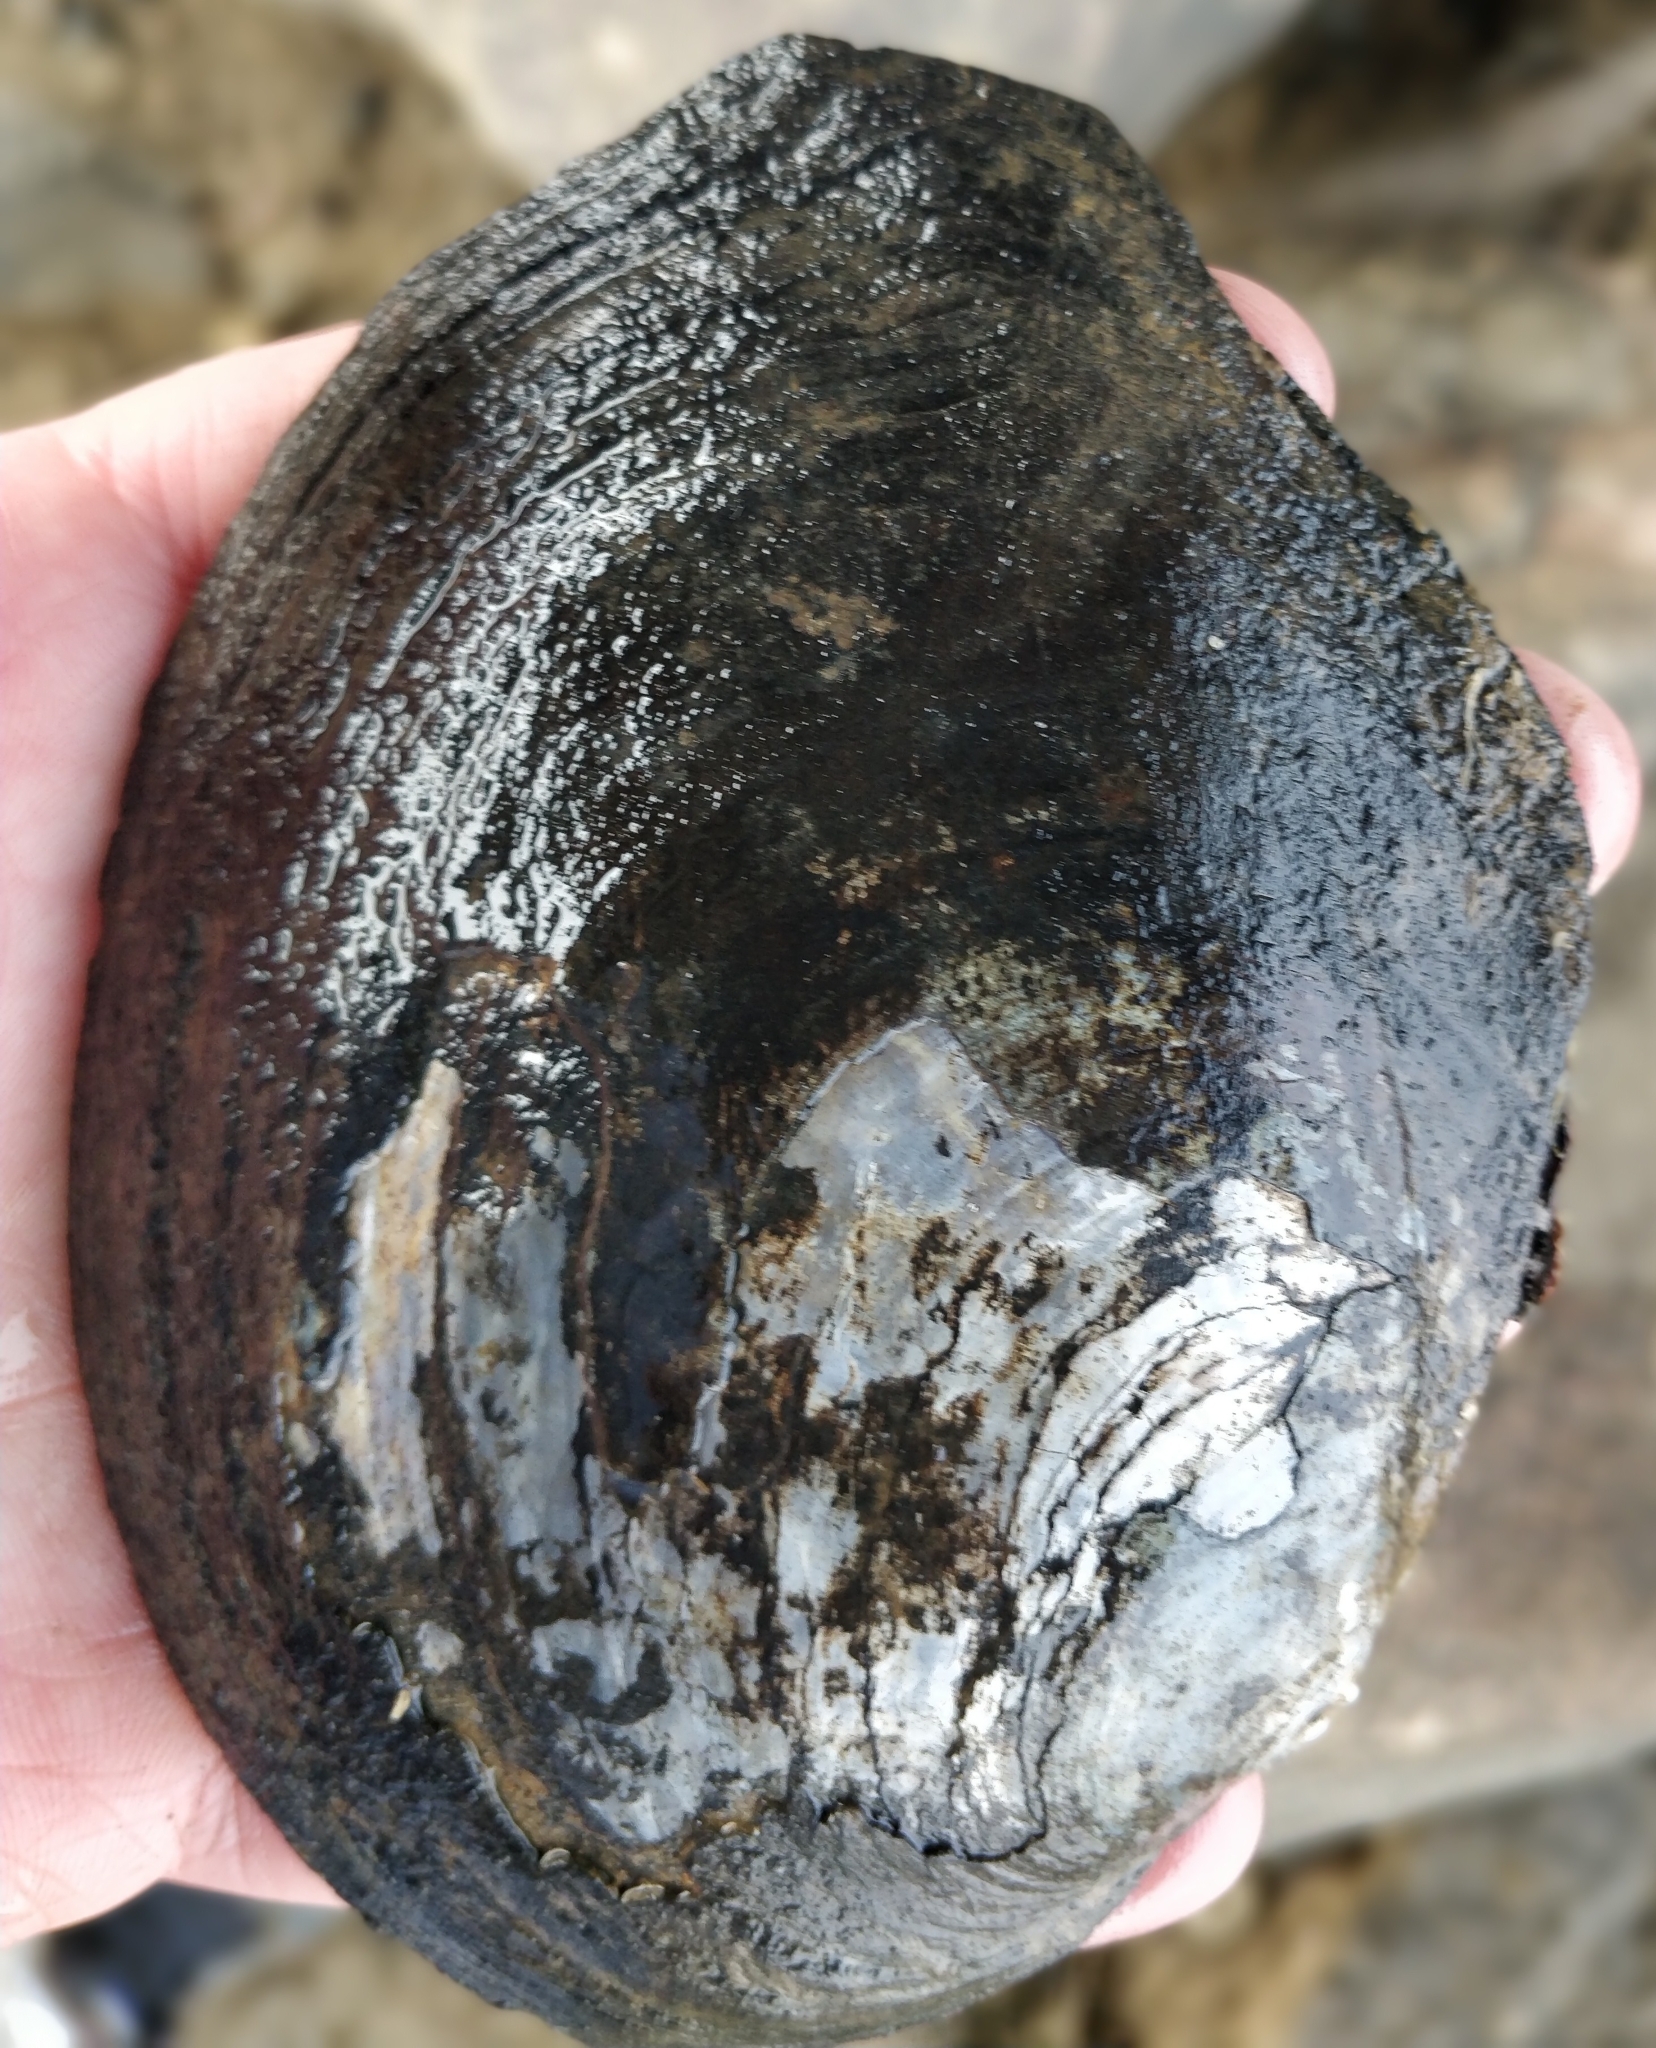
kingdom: Animalia
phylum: Mollusca
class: Bivalvia
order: Unionida
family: Unionidae
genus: Lasmigona
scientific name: Lasmigona complanata
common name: White heelsplitter
